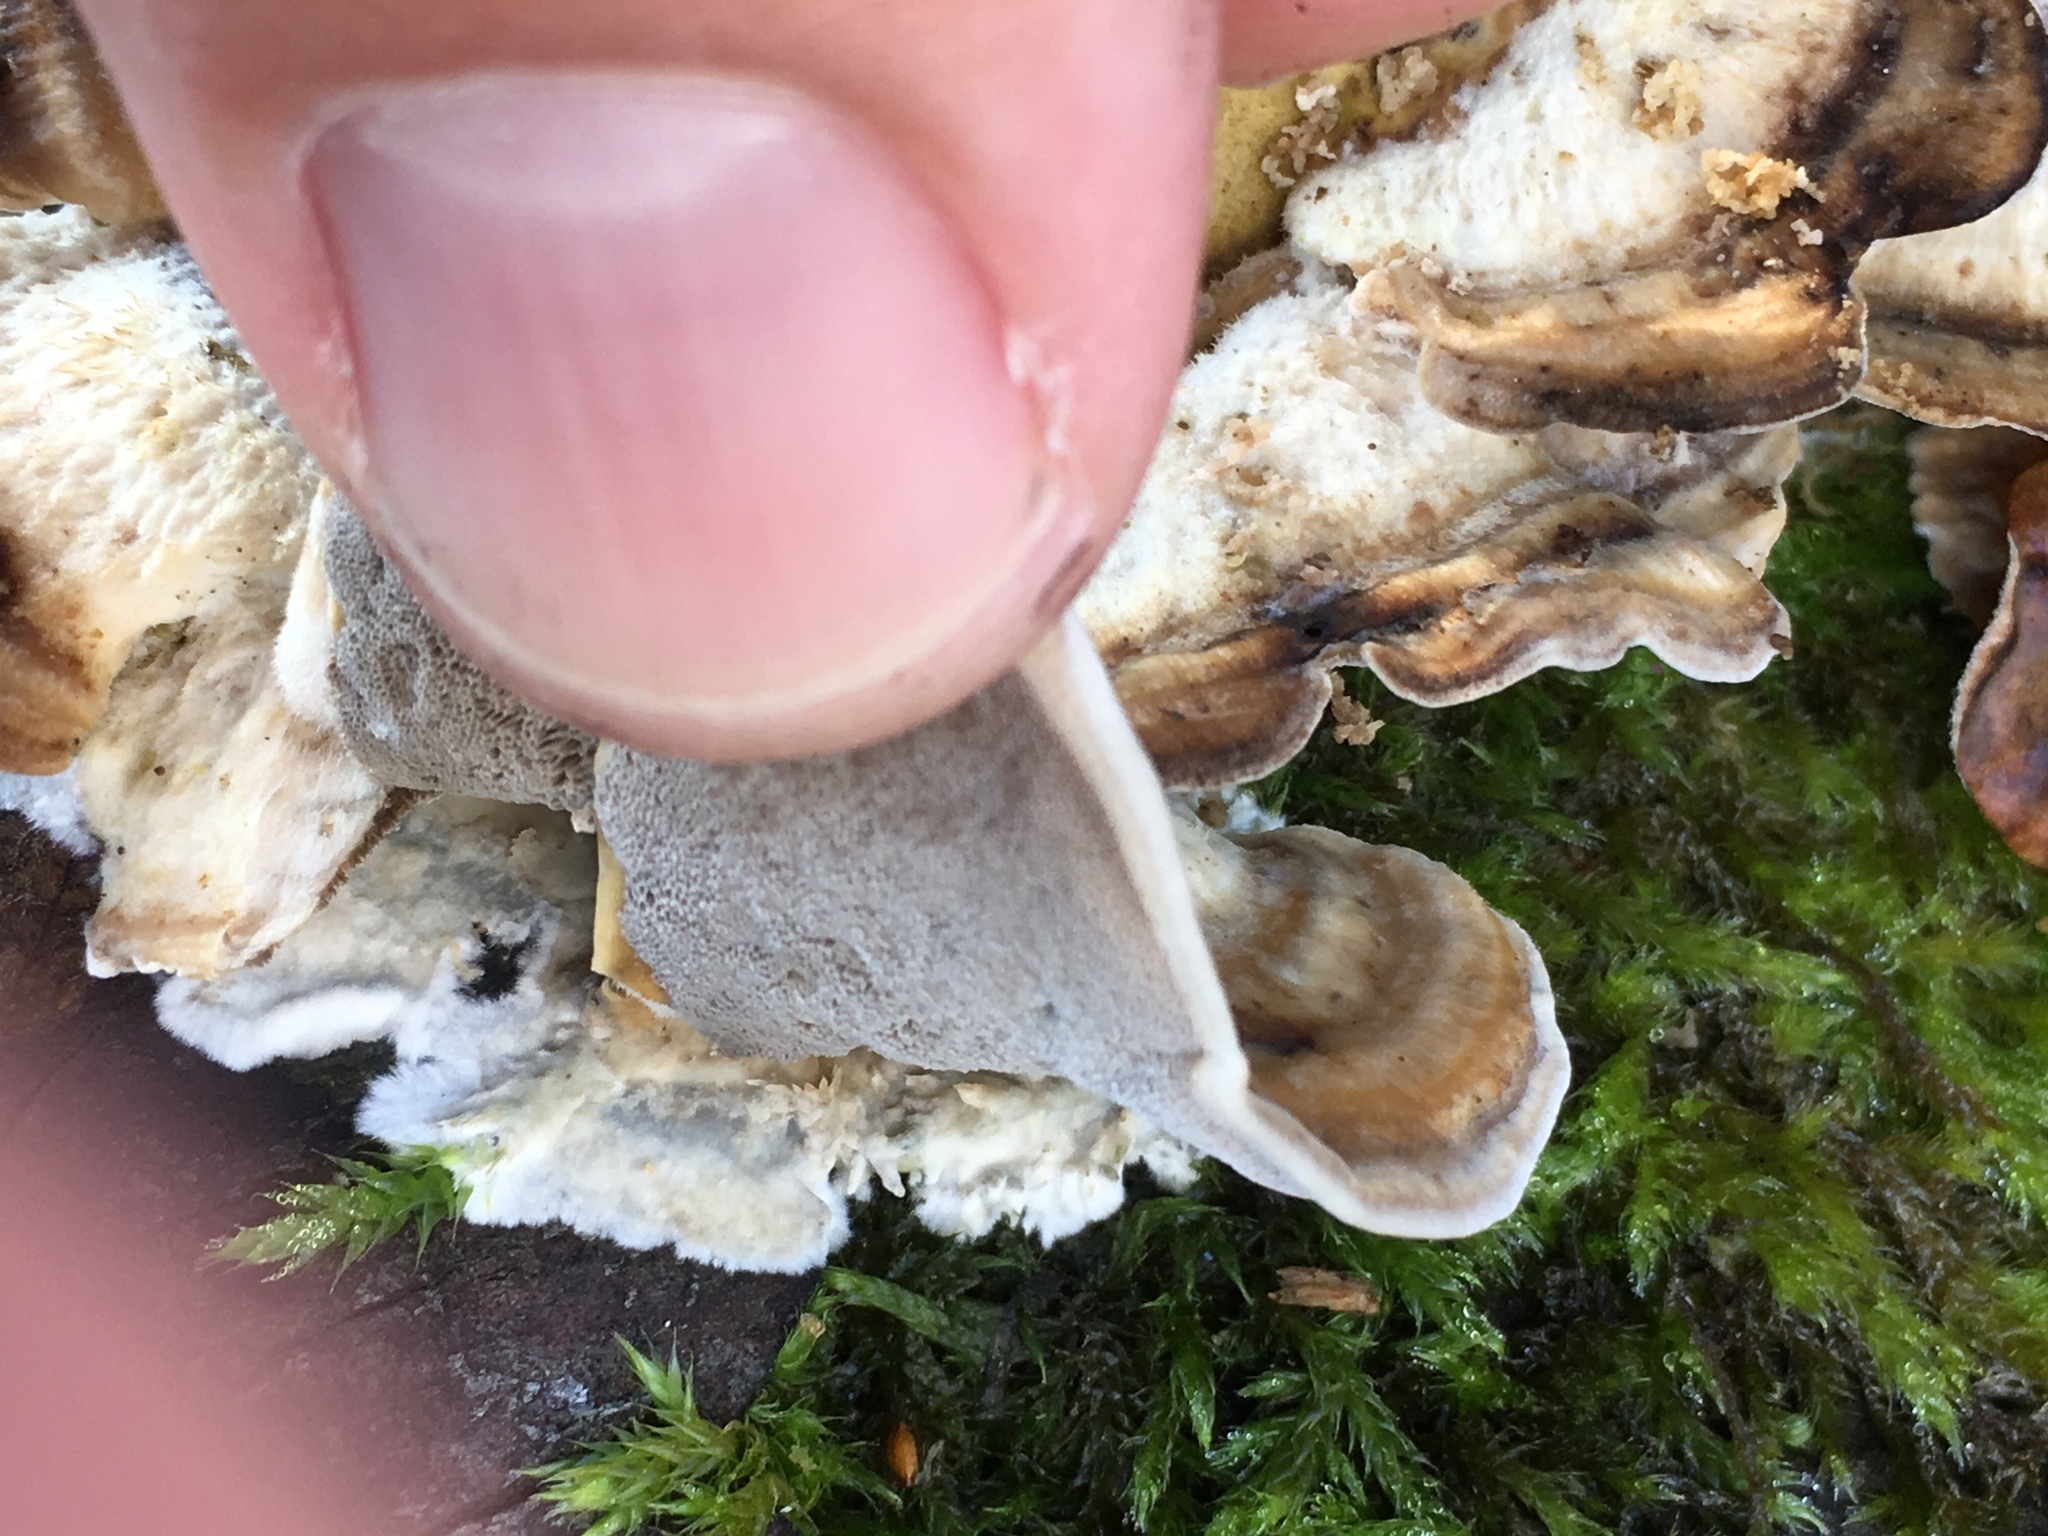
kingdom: Fungi
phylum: Basidiomycota
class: Agaricomycetes
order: Polyporales
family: Phanerochaetaceae
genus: Bjerkandera
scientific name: Bjerkandera adusta
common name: Smoky bracket
